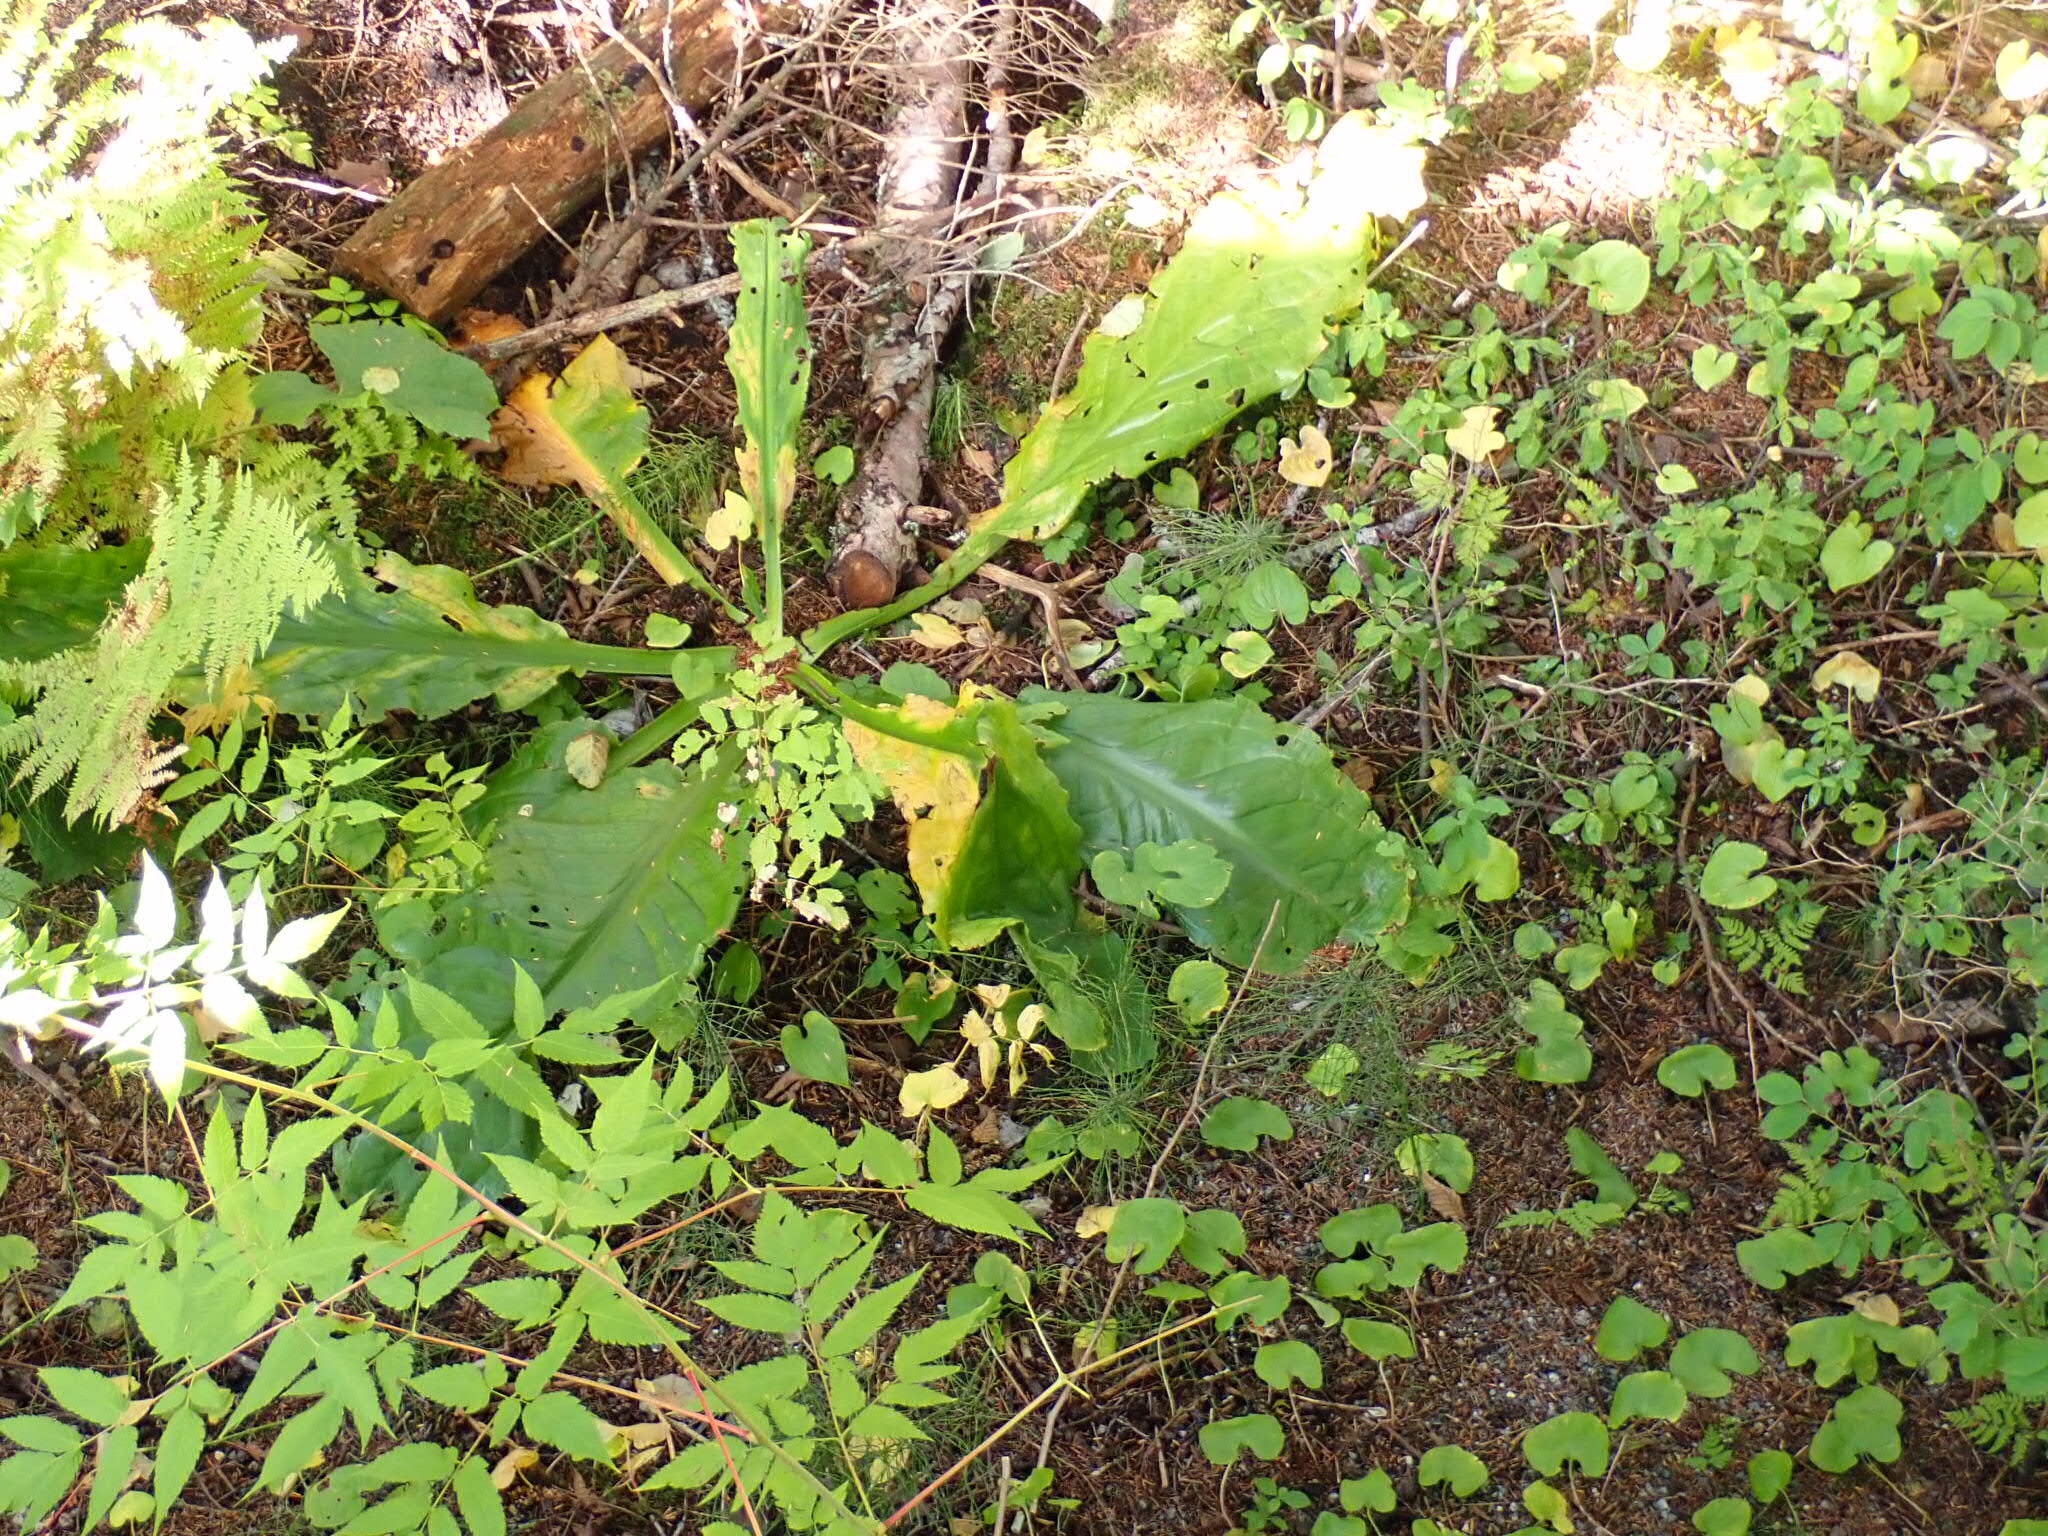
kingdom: Plantae
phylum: Tracheophyta
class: Liliopsida
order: Alismatales
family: Araceae
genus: Lysichiton
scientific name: Lysichiton americanus
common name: American skunk cabbage
